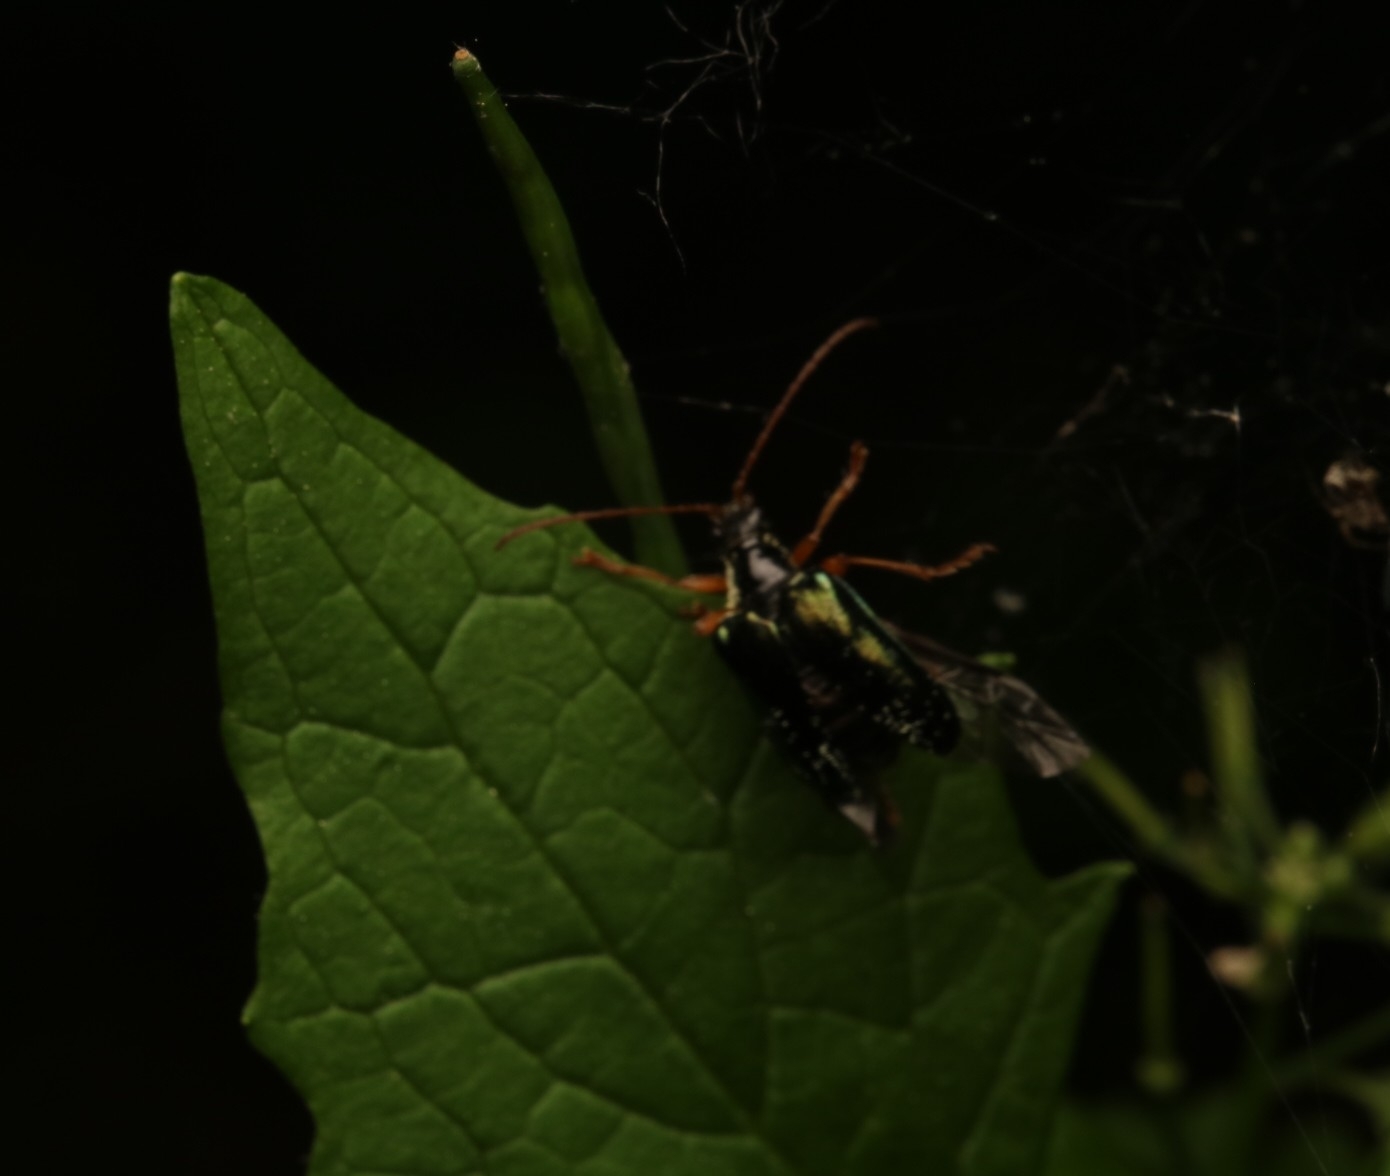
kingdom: Animalia
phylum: Arthropoda
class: Insecta
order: Coleoptera
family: Cerambycidae
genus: Gaurotes
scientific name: Gaurotes cyanipennis
